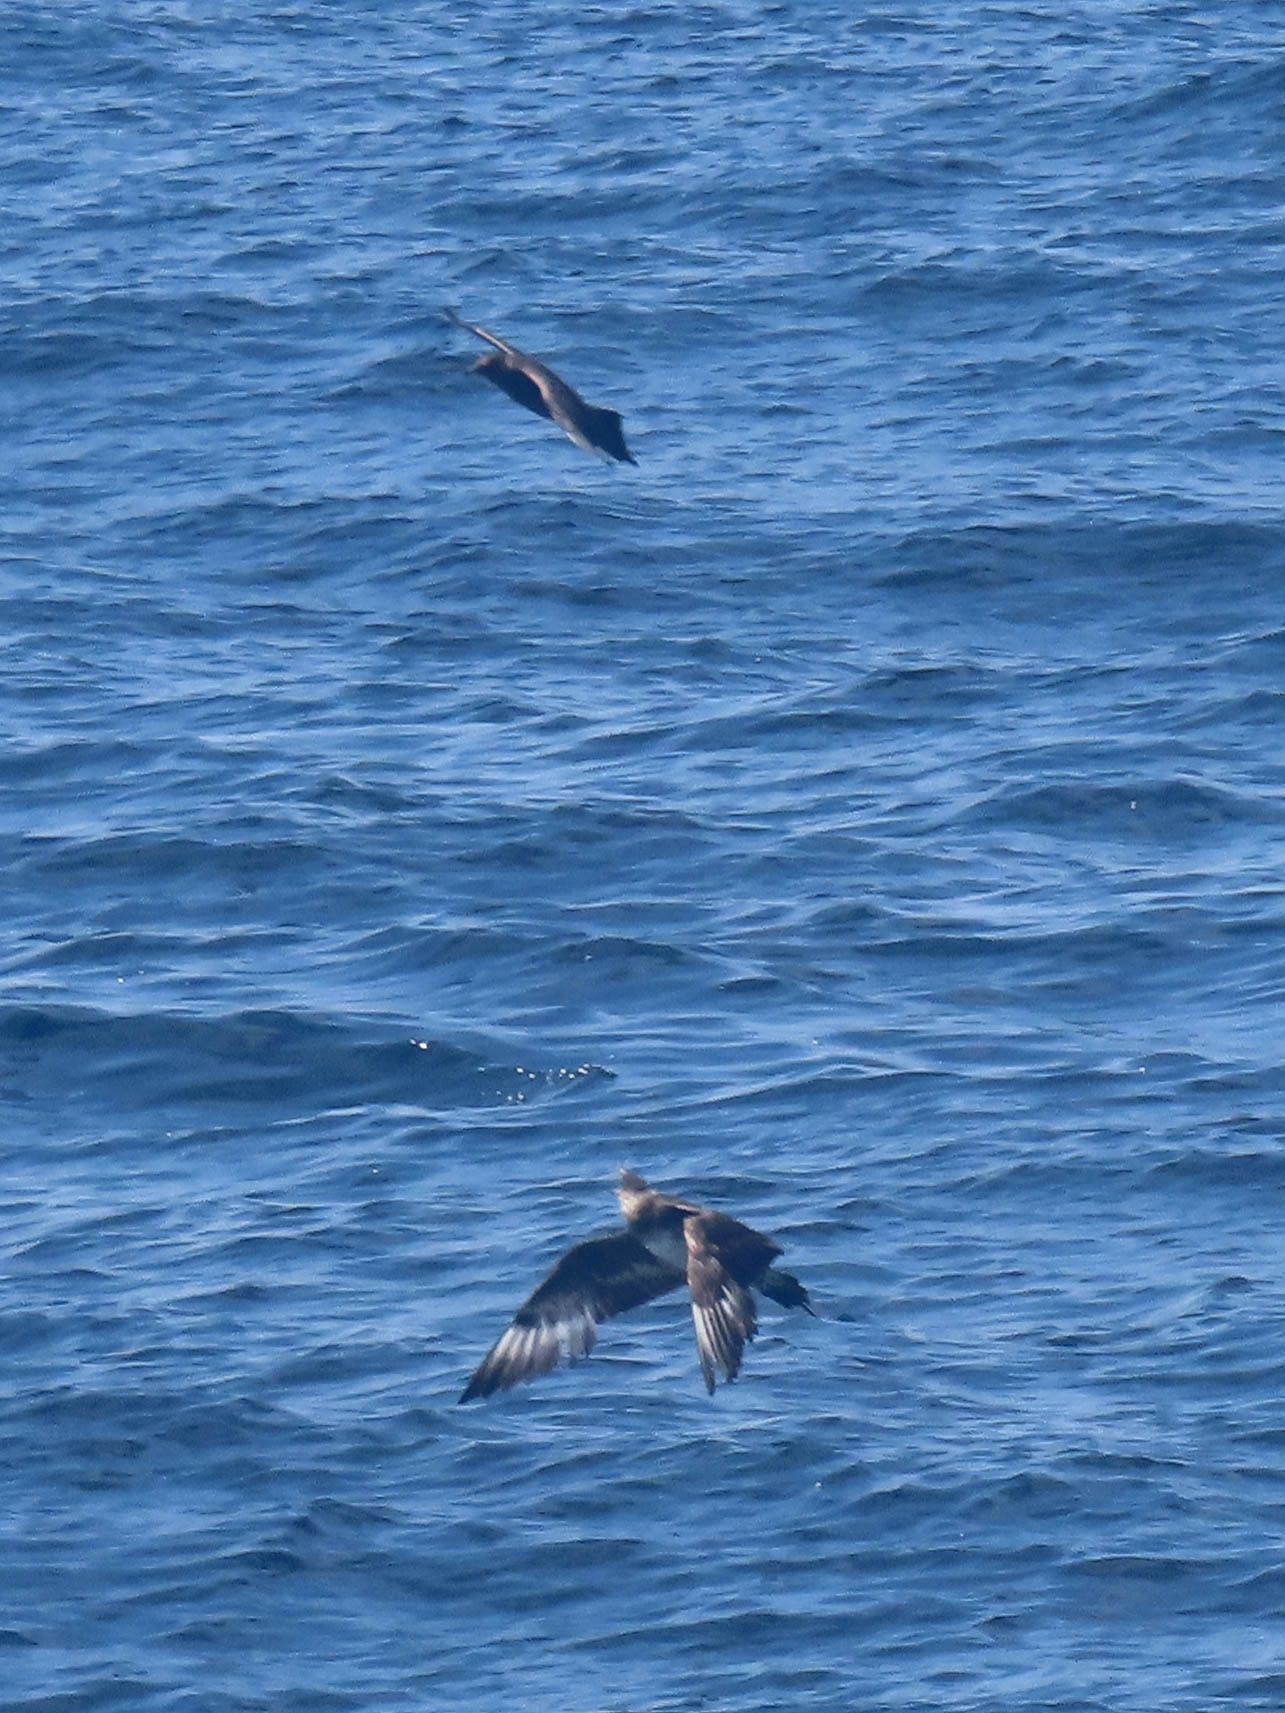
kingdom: Animalia
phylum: Chordata
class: Aves
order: Charadriiformes
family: Stercorariidae
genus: Stercorarius
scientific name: Stercorarius pomarinus
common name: Pomarine jaeger
